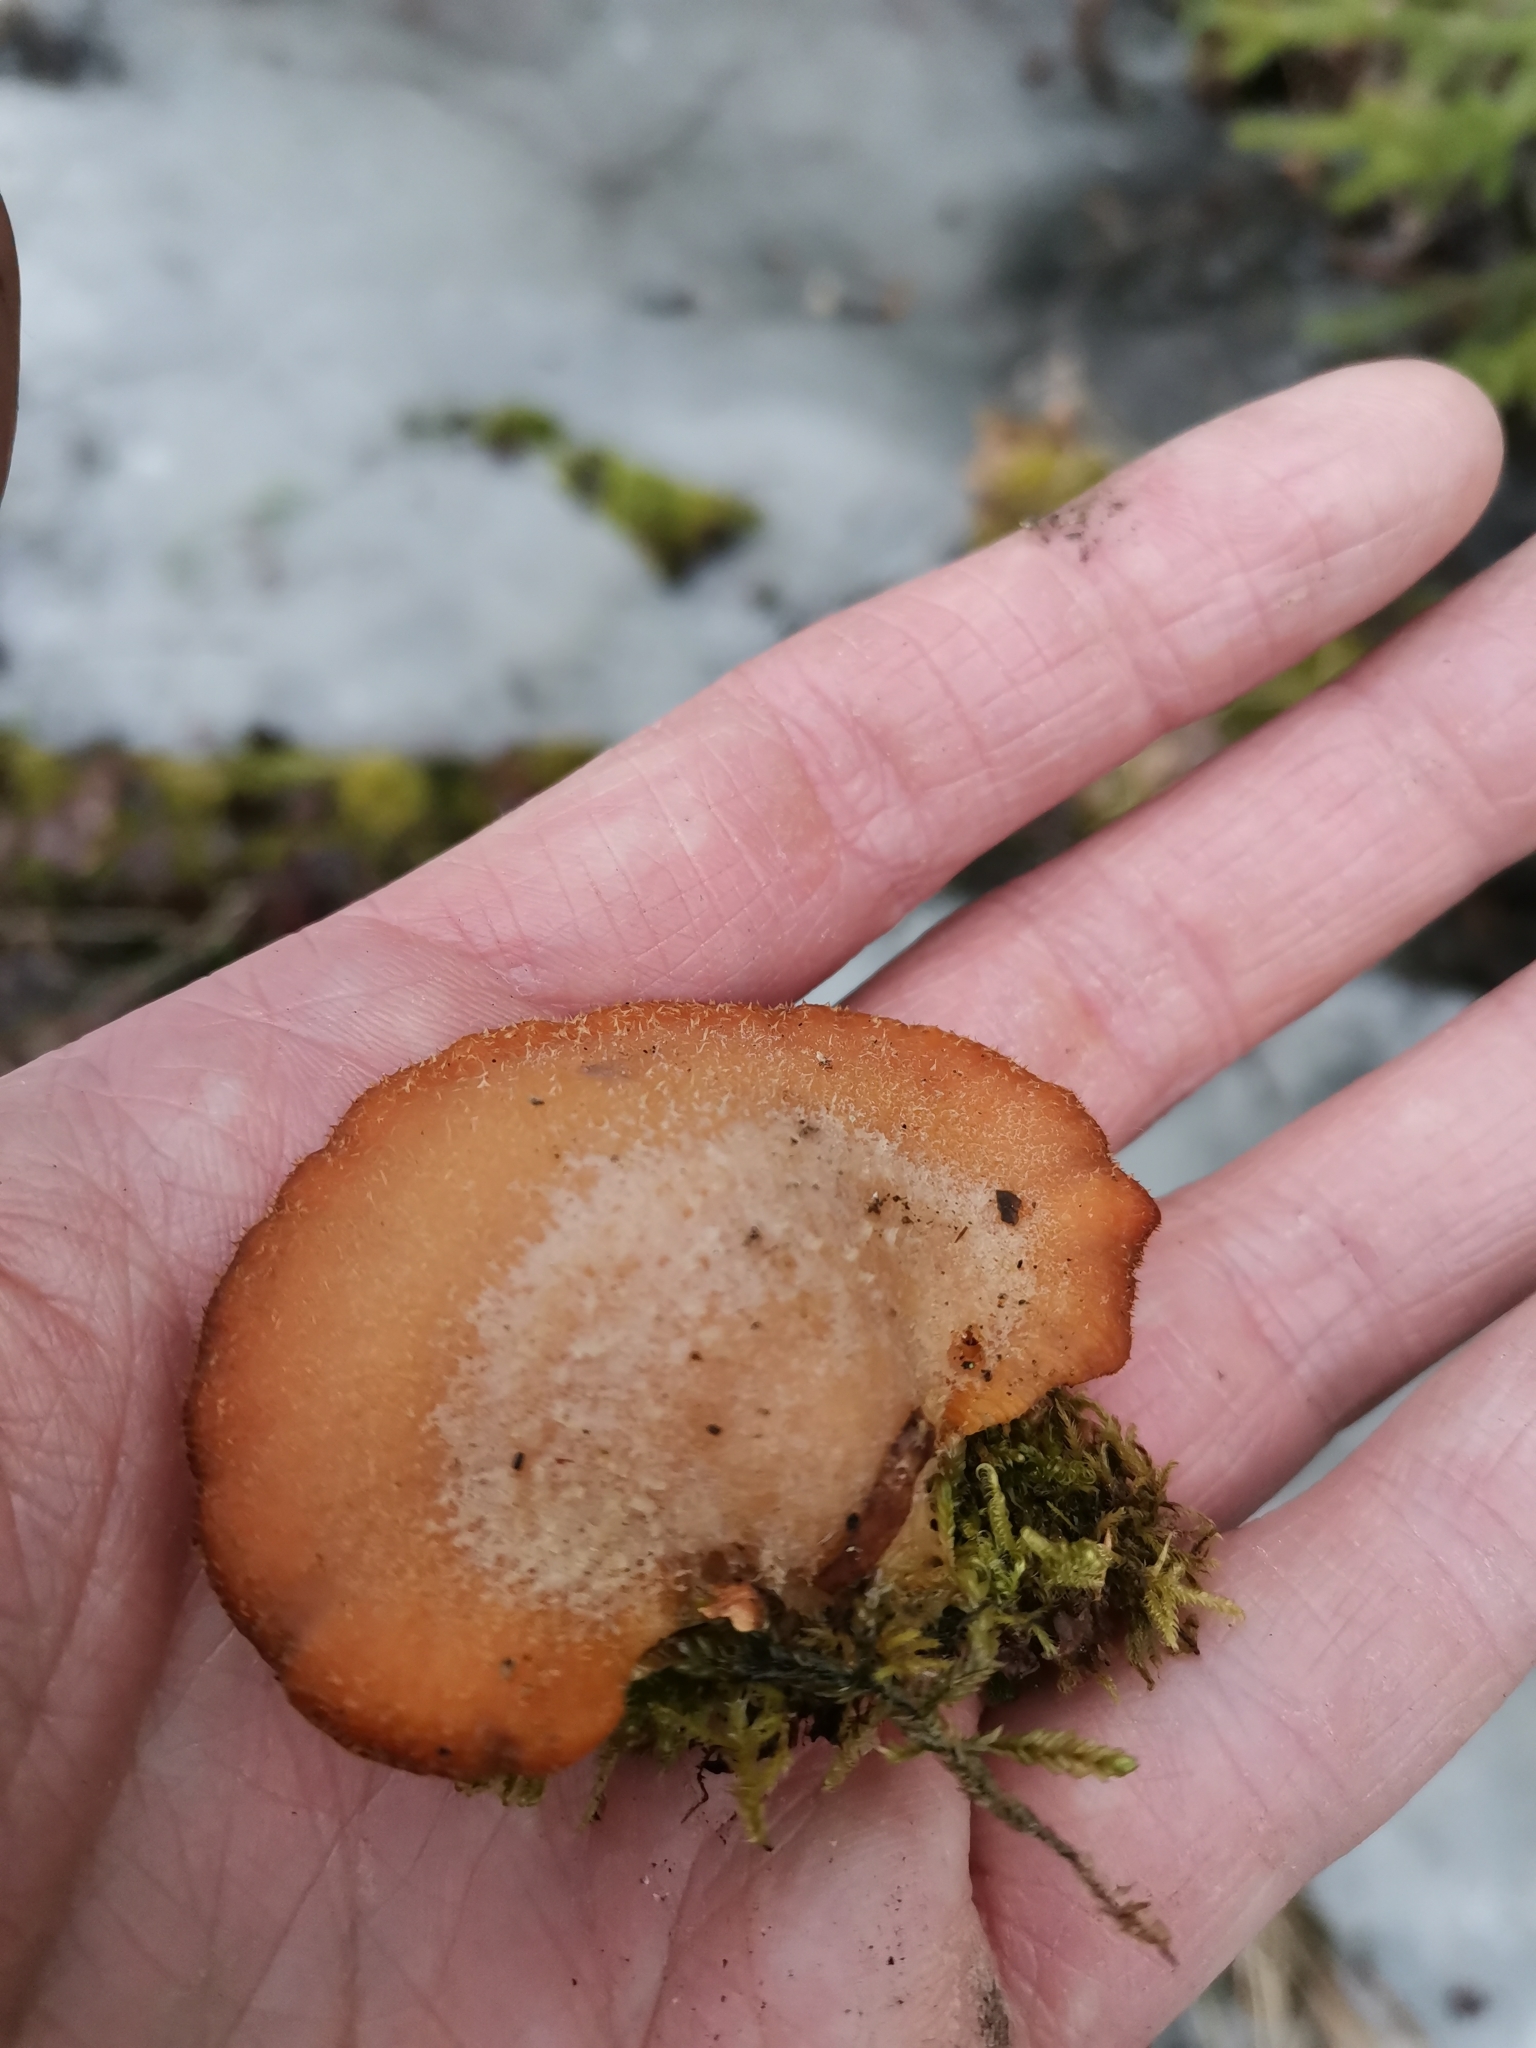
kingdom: Fungi
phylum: Basidiomycota
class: Agaricomycetes
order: Agaricales
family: Phyllotopsidaceae
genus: Phyllotopsis
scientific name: Phyllotopsis nidulans
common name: Orange mock oyster
